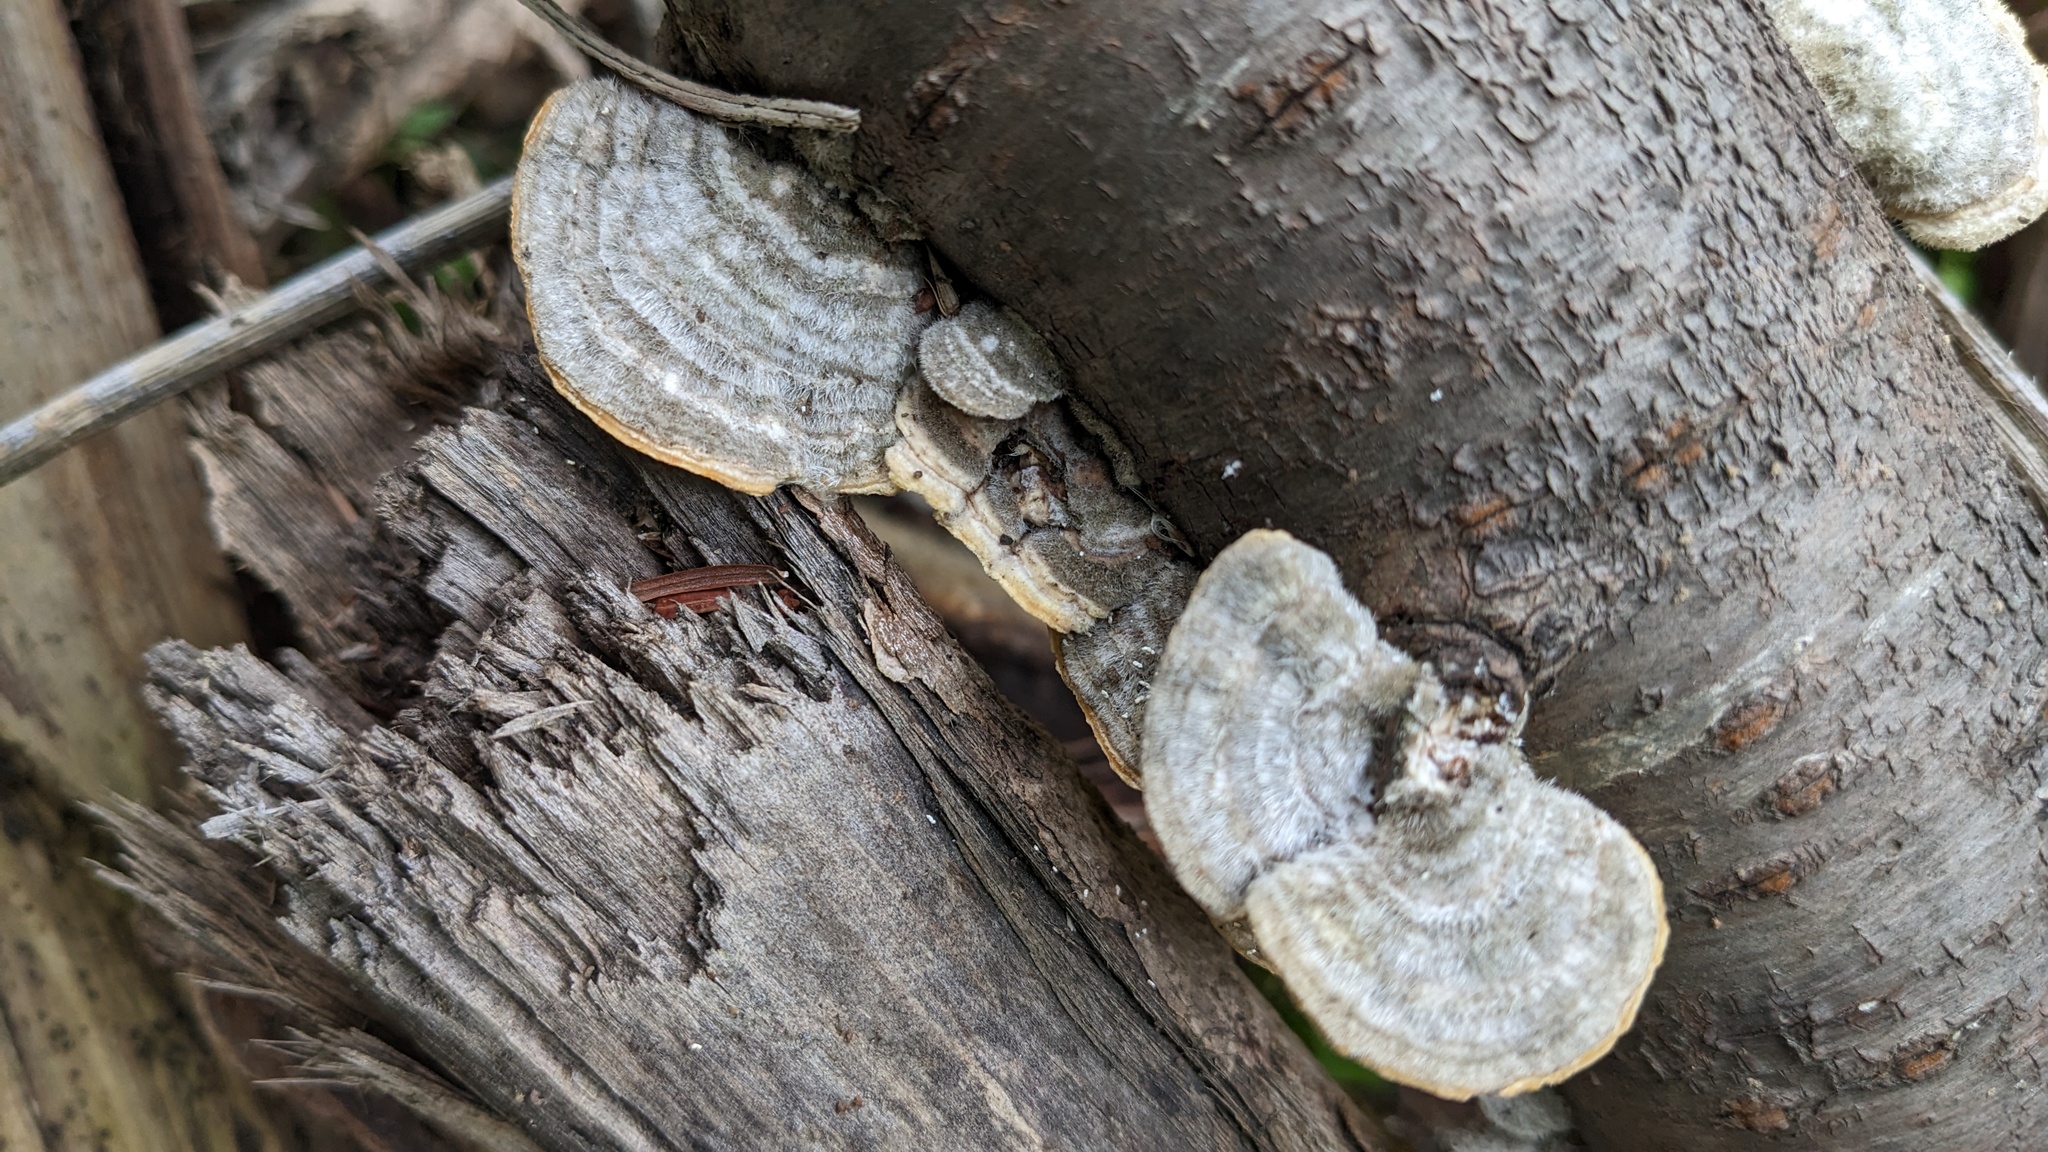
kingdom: Fungi
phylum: Basidiomycota
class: Agaricomycetes
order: Polyporales
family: Polyporaceae
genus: Trametes
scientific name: Trametes hirsuta
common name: Hairy bracket
